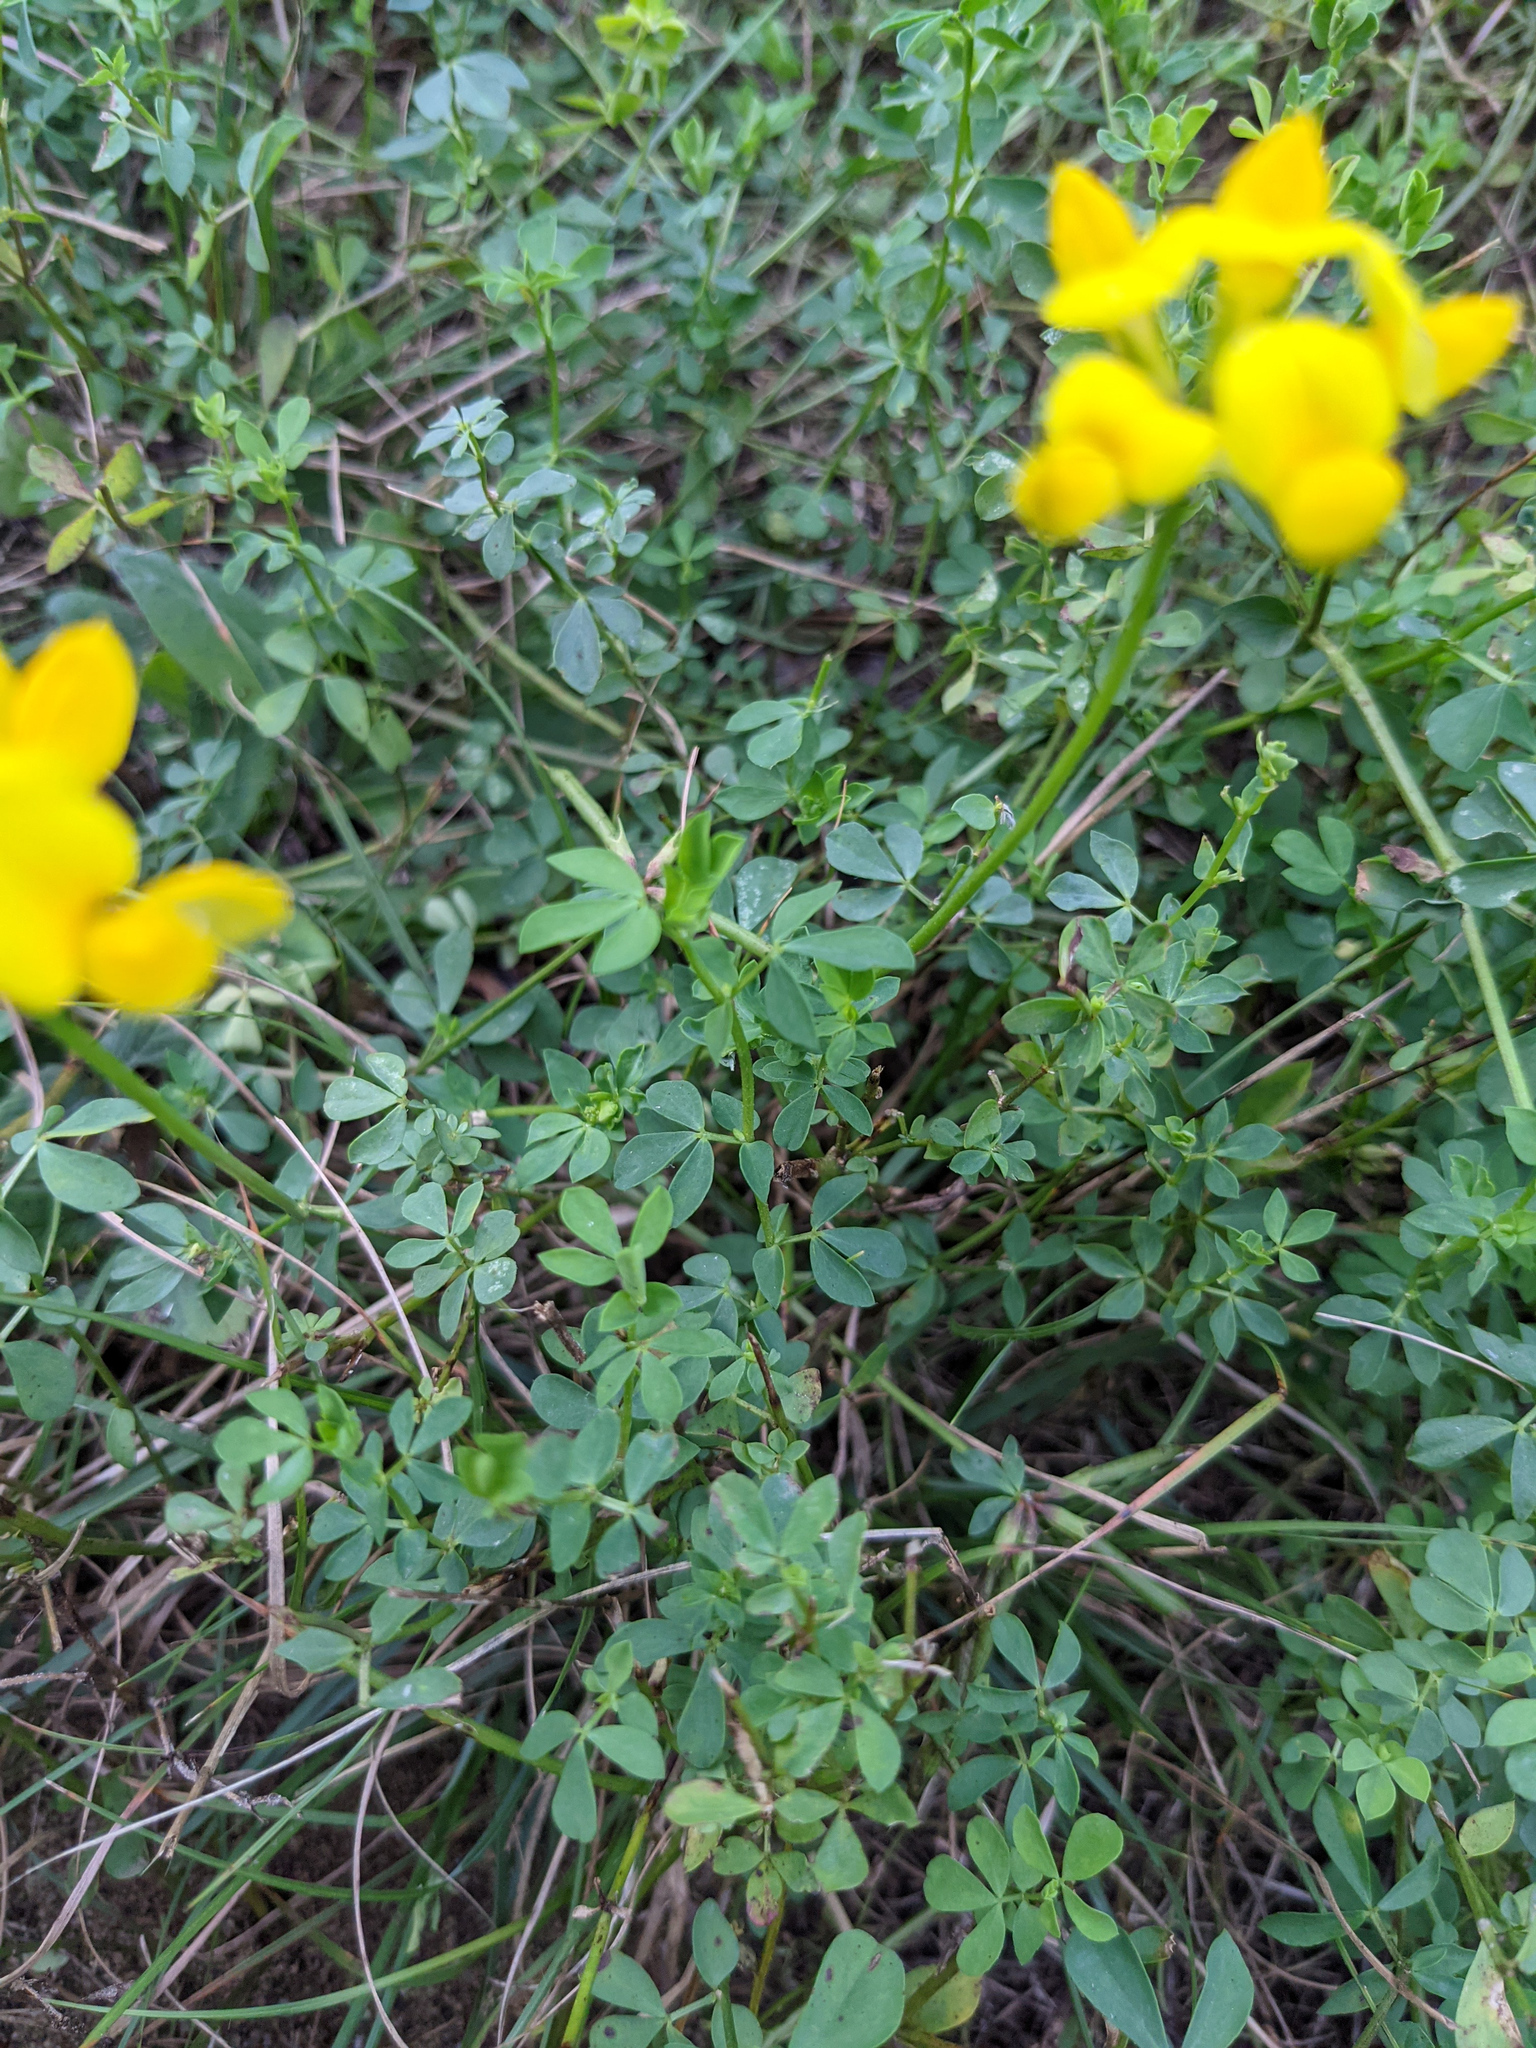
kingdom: Plantae
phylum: Tracheophyta
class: Magnoliopsida
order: Fabales
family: Fabaceae
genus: Lotus
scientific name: Lotus corniculatus
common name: Common bird's-foot-trefoil
